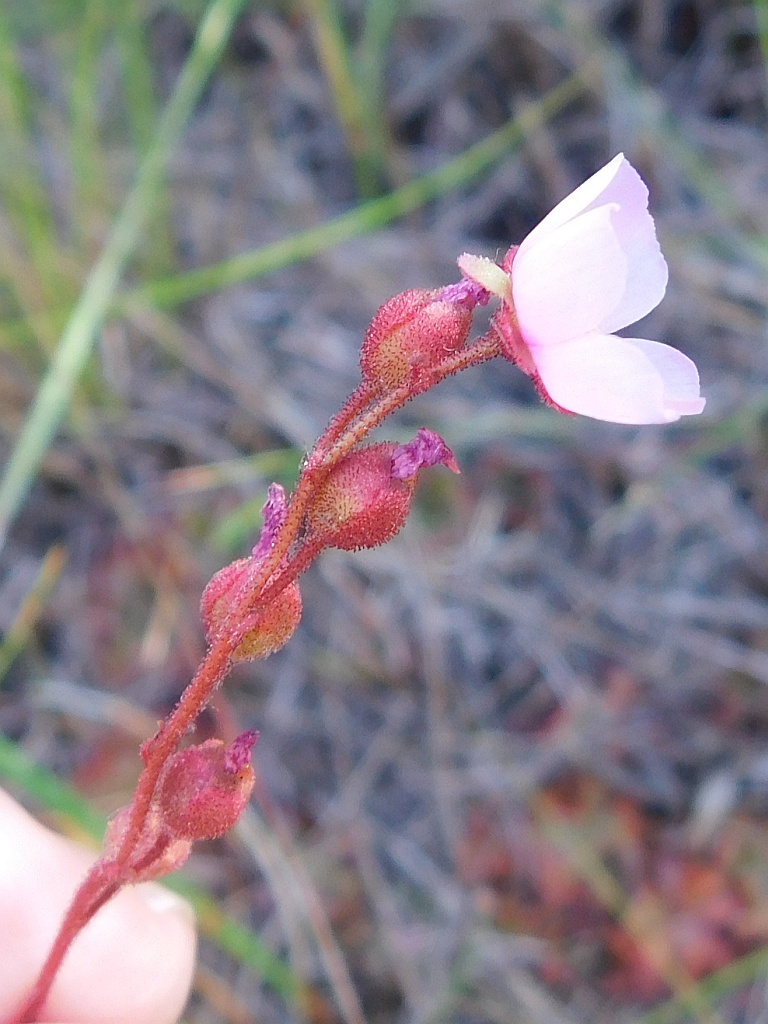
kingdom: Plantae
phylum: Tracheophyta
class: Magnoliopsida
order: Caryophyllales
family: Droseraceae
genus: Drosera
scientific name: Drosera aliciae
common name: Alice sundew
